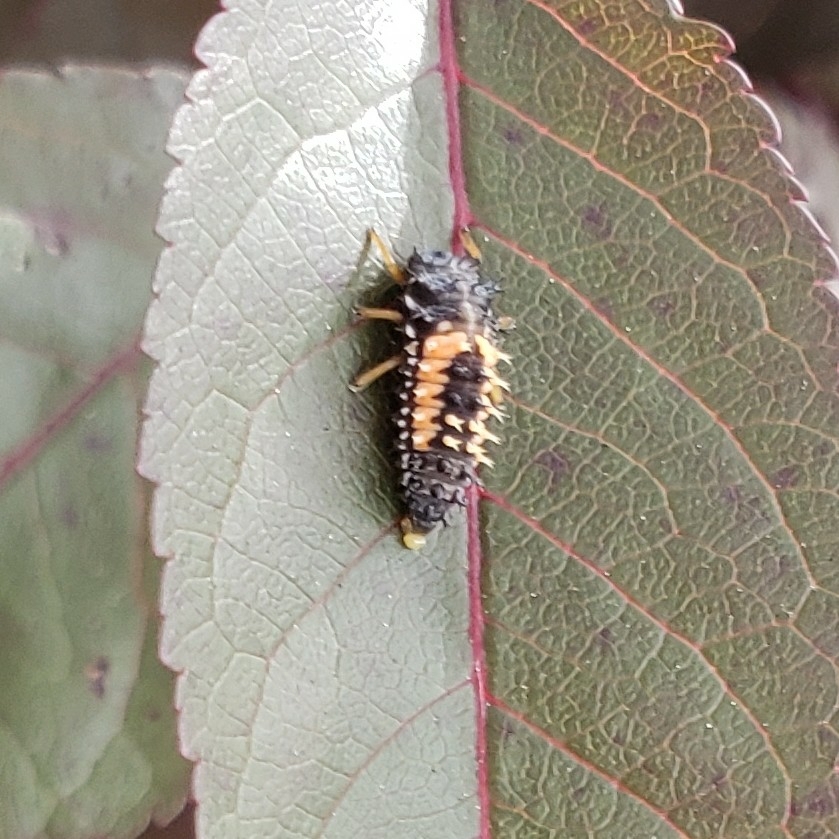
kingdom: Animalia
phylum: Arthropoda
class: Insecta
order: Coleoptera
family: Coccinellidae
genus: Harmonia
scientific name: Harmonia axyridis
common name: Harlequin ladybird
